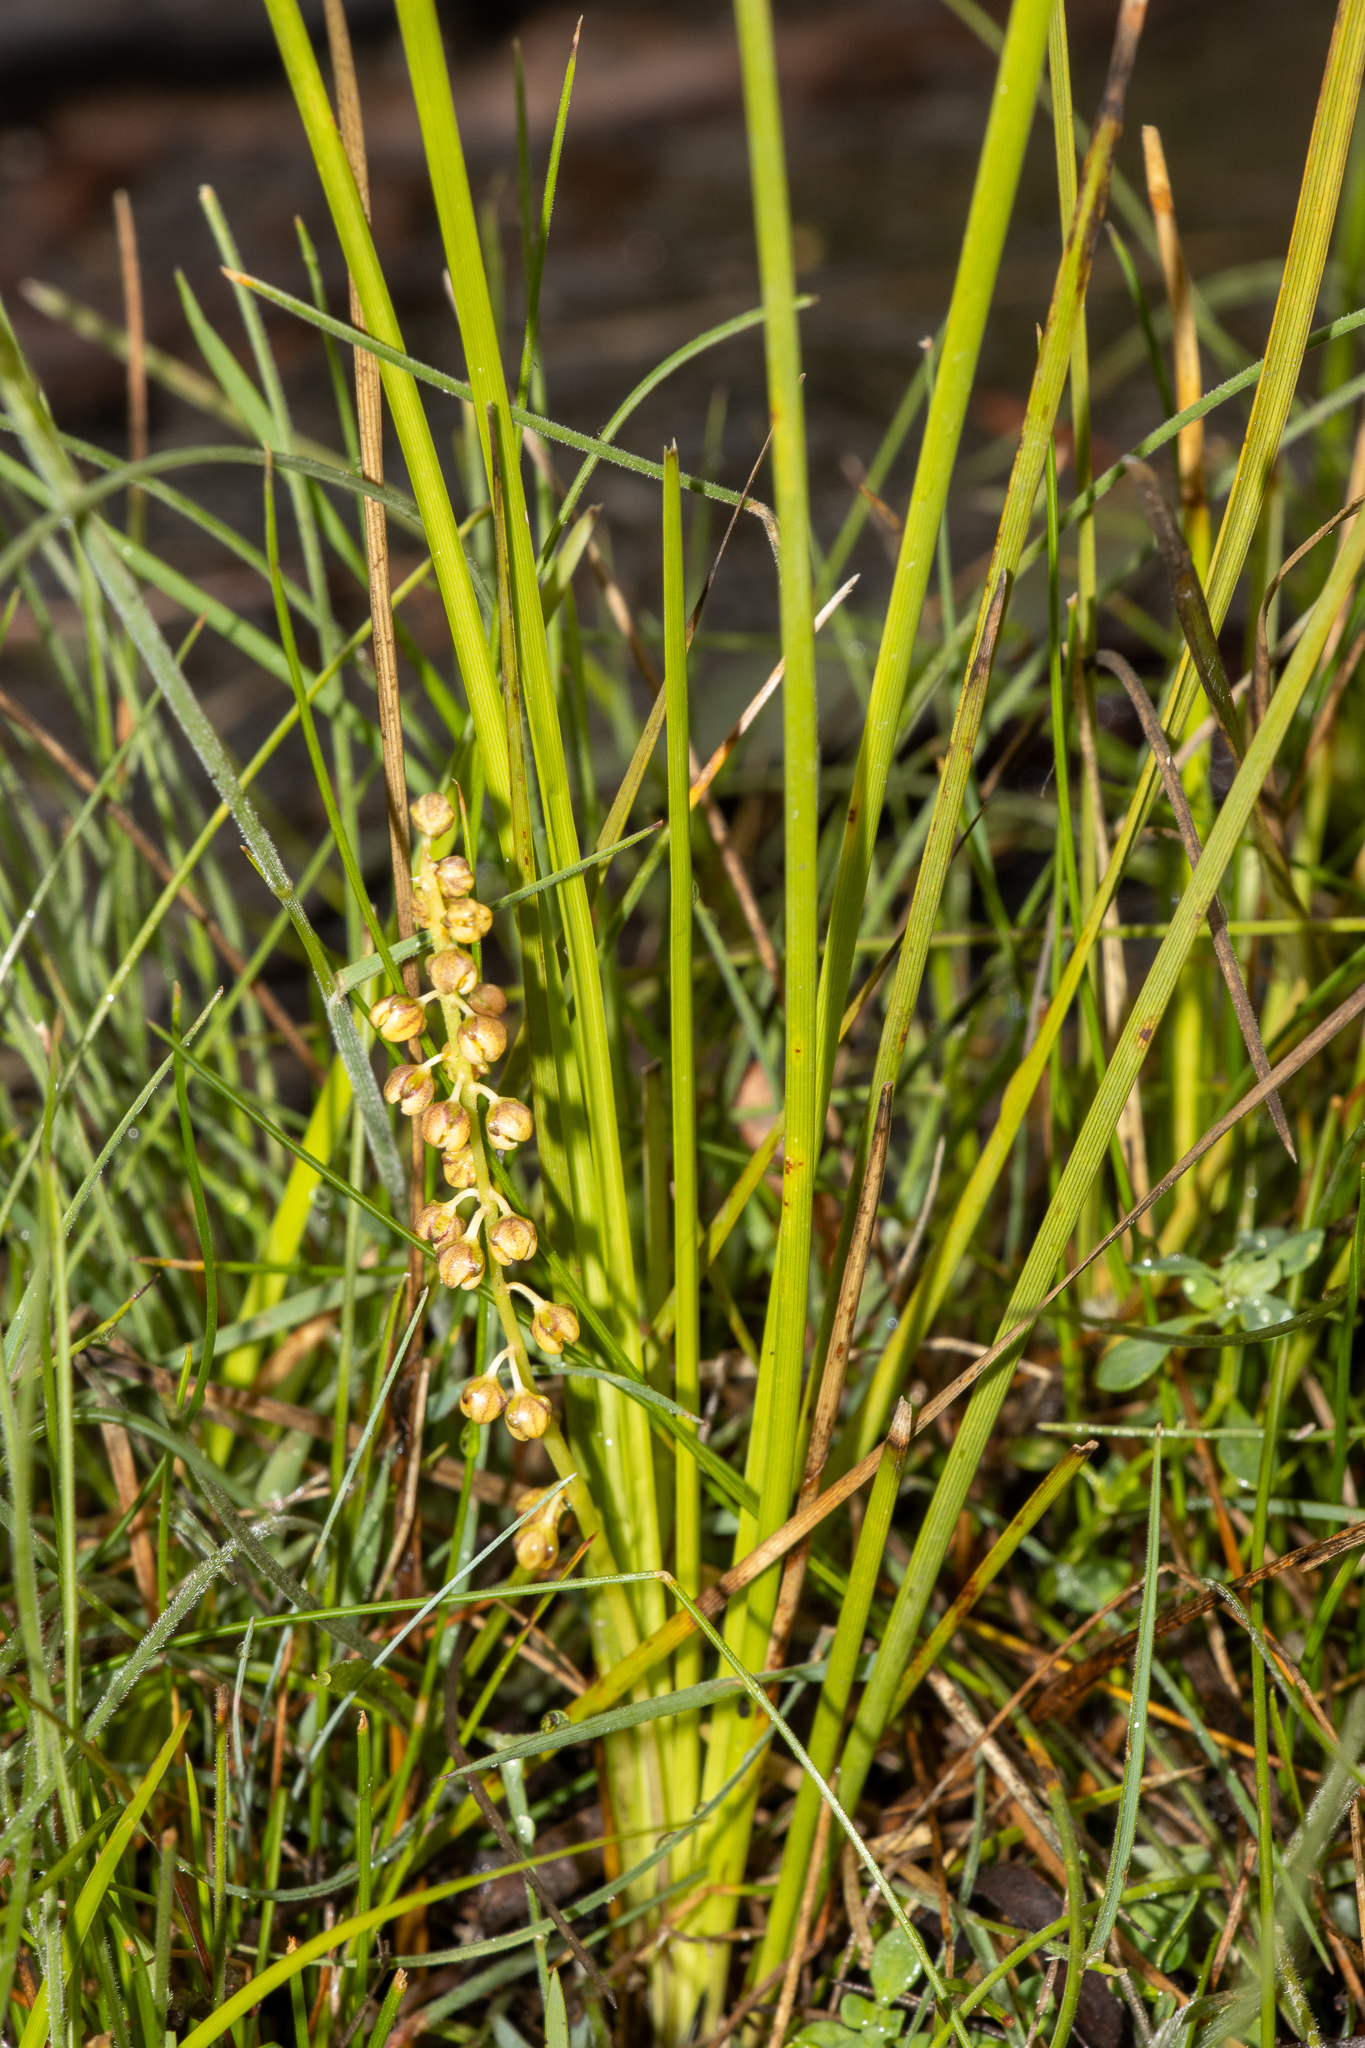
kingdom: Plantae
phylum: Tracheophyta
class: Liliopsida
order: Asparagales
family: Asparagaceae
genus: Lomandra
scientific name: Lomandra filiformis
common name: Wattle mat-rush
